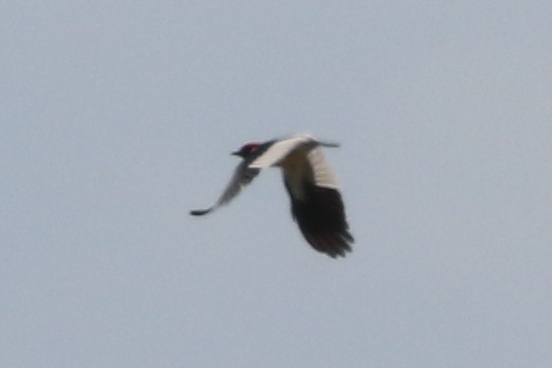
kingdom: Animalia
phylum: Chordata
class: Aves
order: Piciformes
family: Picidae
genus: Melanerpes
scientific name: Melanerpes erythrocephalus
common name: Red-headed woodpecker
